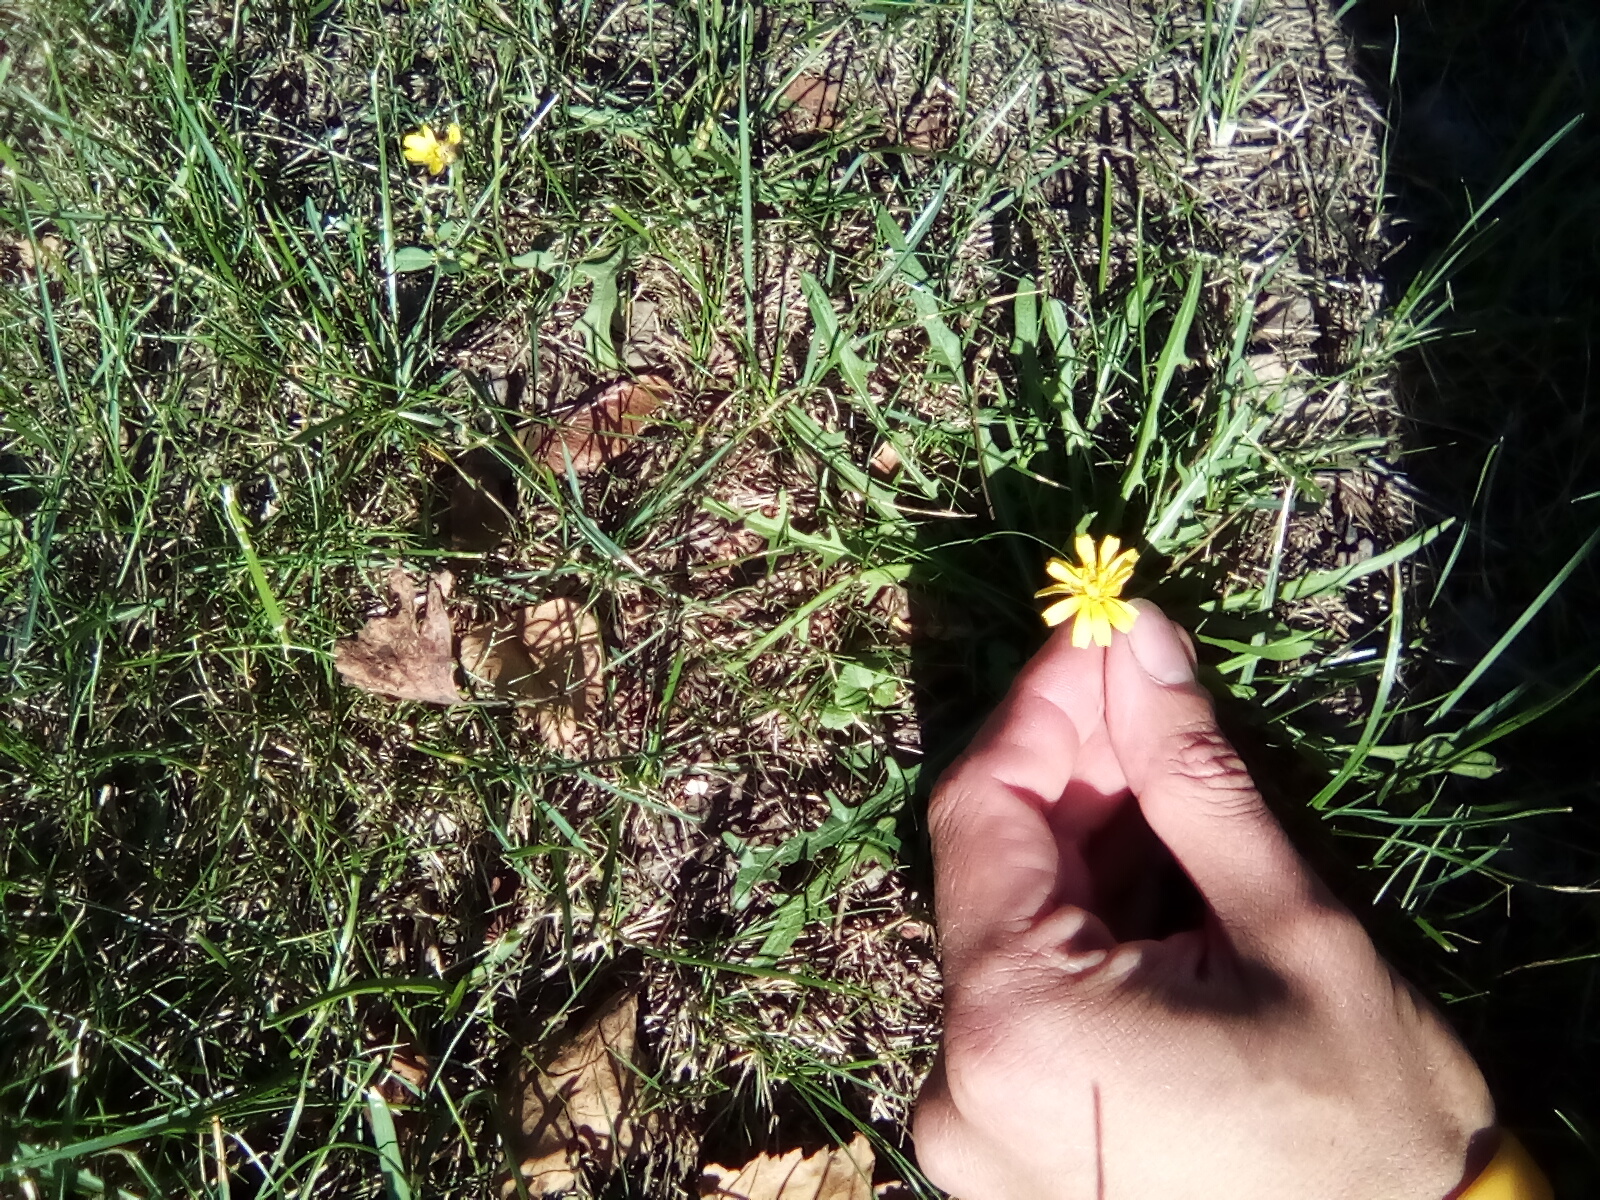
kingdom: Plantae
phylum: Tracheophyta
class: Magnoliopsida
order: Asterales
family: Asteraceae
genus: Scorzoneroides
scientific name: Scorzoneroides autumnalis
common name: Autumn hawkbit
